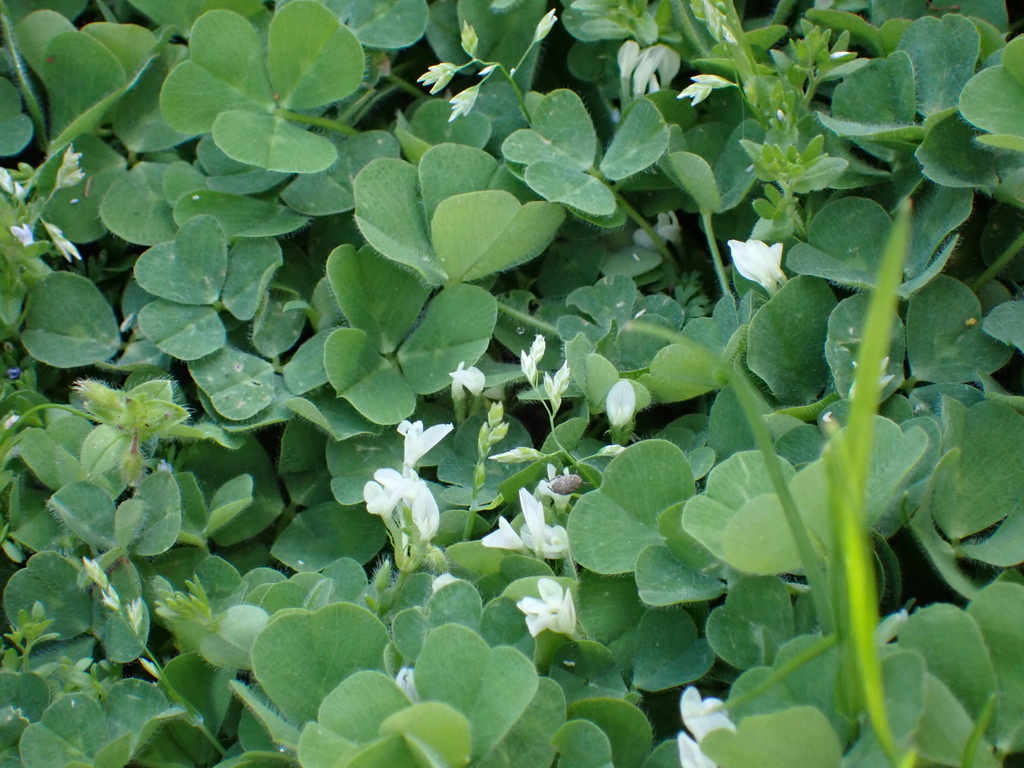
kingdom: Plantae
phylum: Tracheophyta
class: Magnoliopsida
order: Fabales
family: Fabaceae
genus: Trifolium
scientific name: Trifolium subterraneum
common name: Subterranean clover
